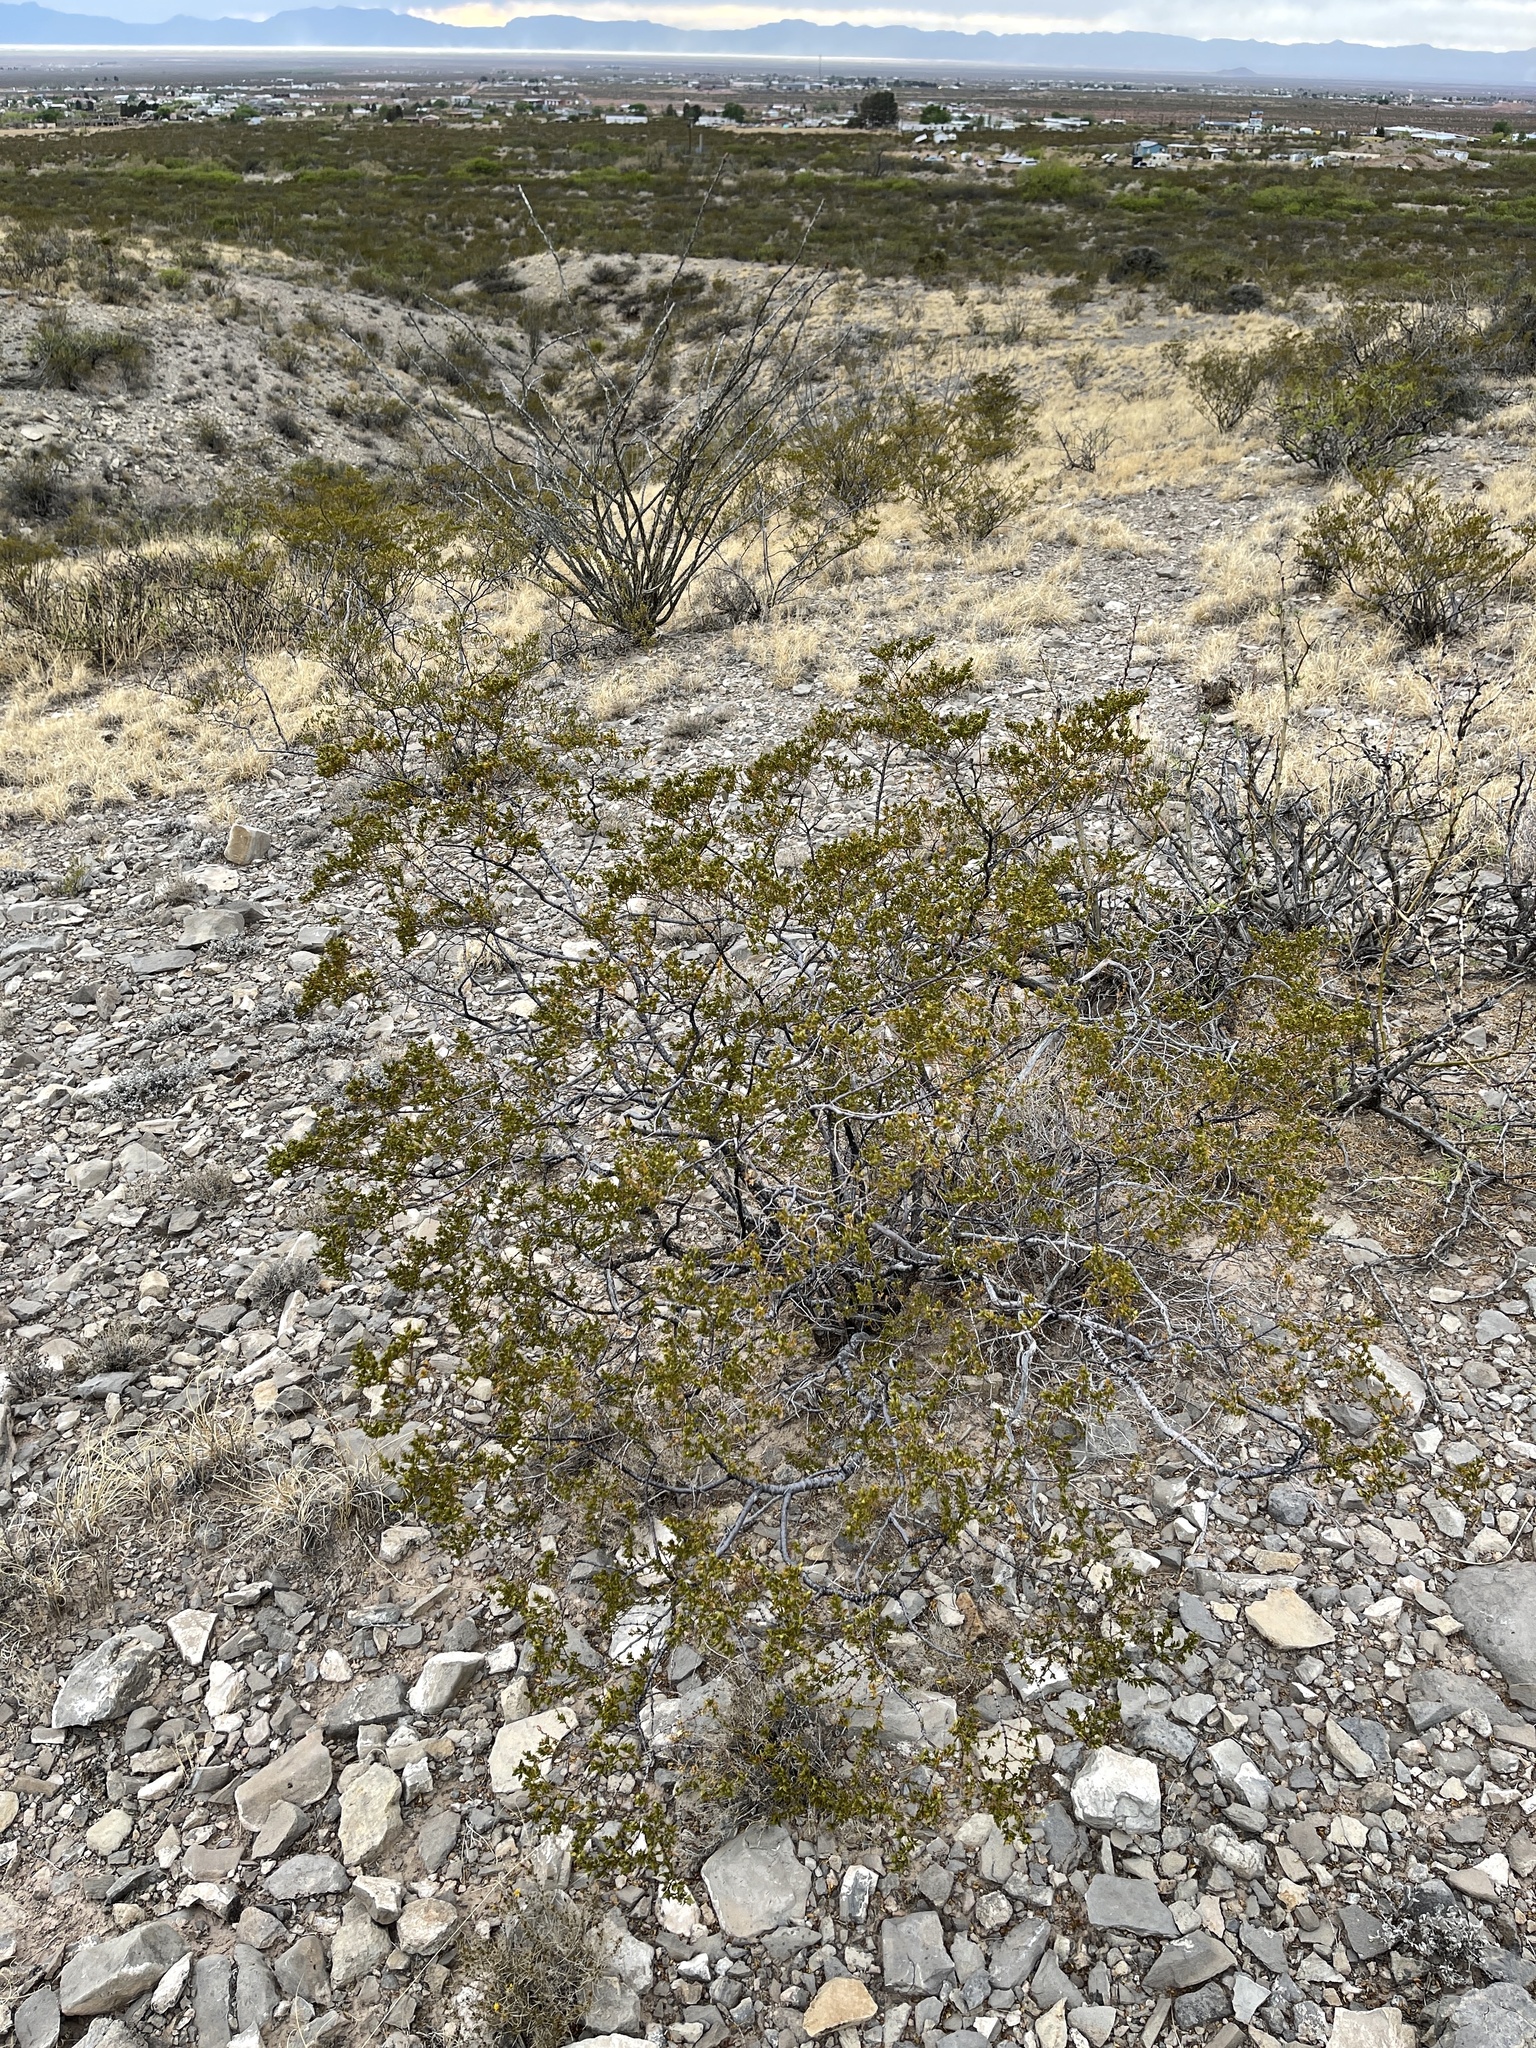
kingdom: Plantae
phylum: Tracheophyta
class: Magnoliopsida
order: Zygophyllales
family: Zygophyllaceae
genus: Larrea
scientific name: Larrea tridentata
